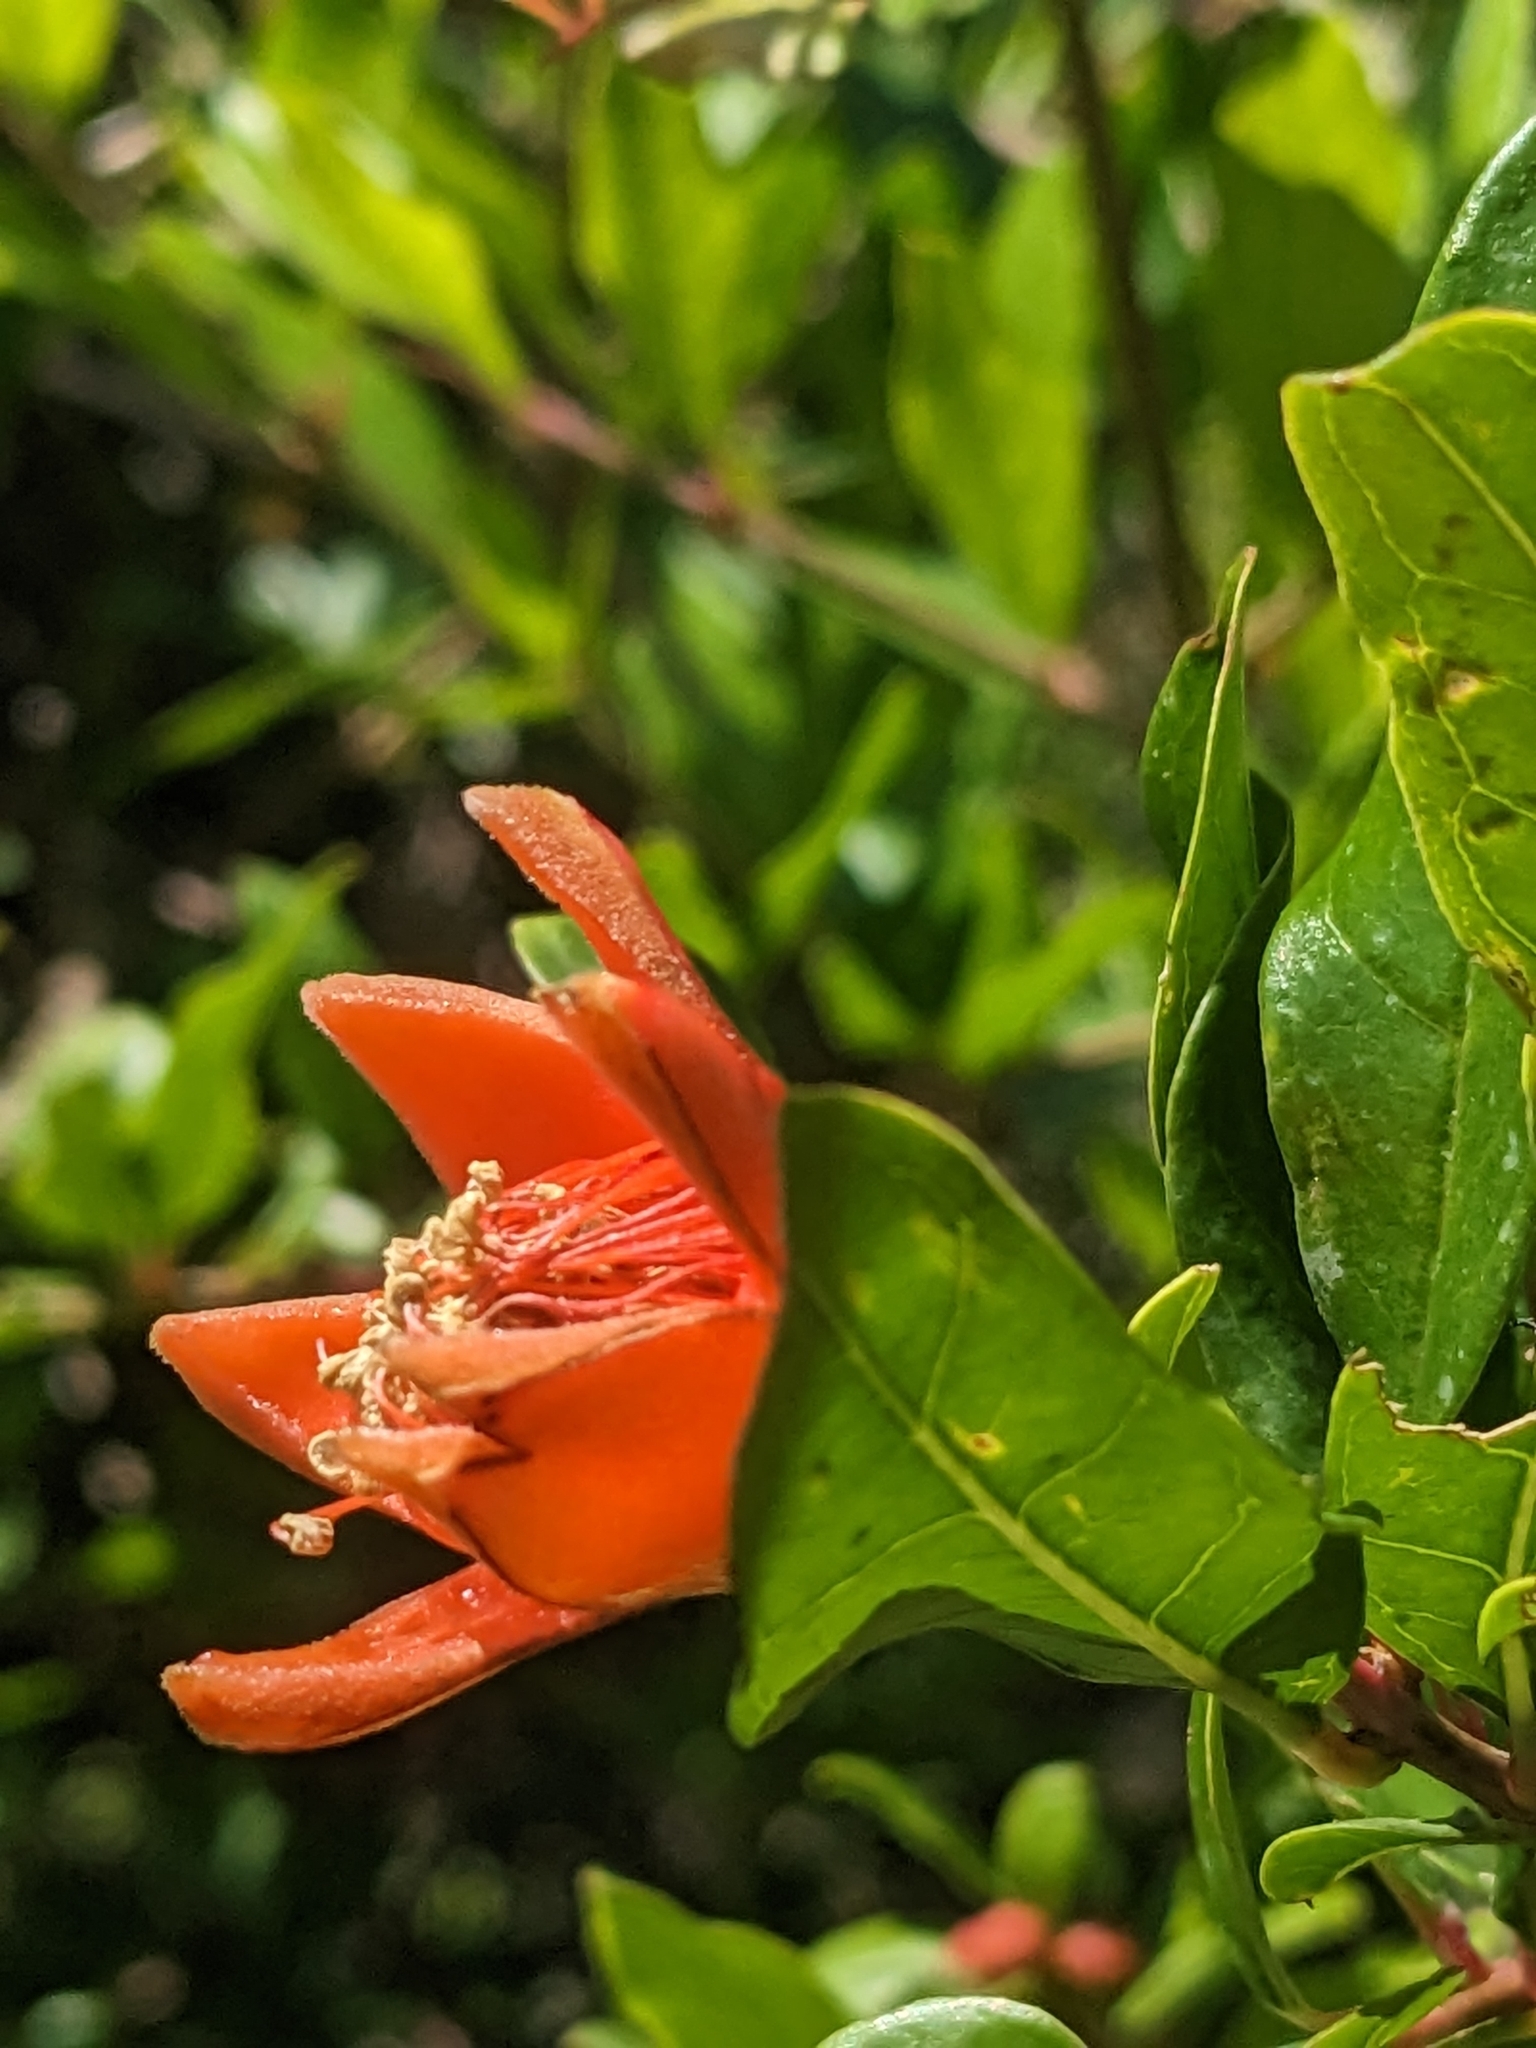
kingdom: Plantae
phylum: Tracheophyta
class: Magnoliopsida
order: Myrtales
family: Lythraceae
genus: Punica
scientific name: Punica granatum
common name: Pomegranate
